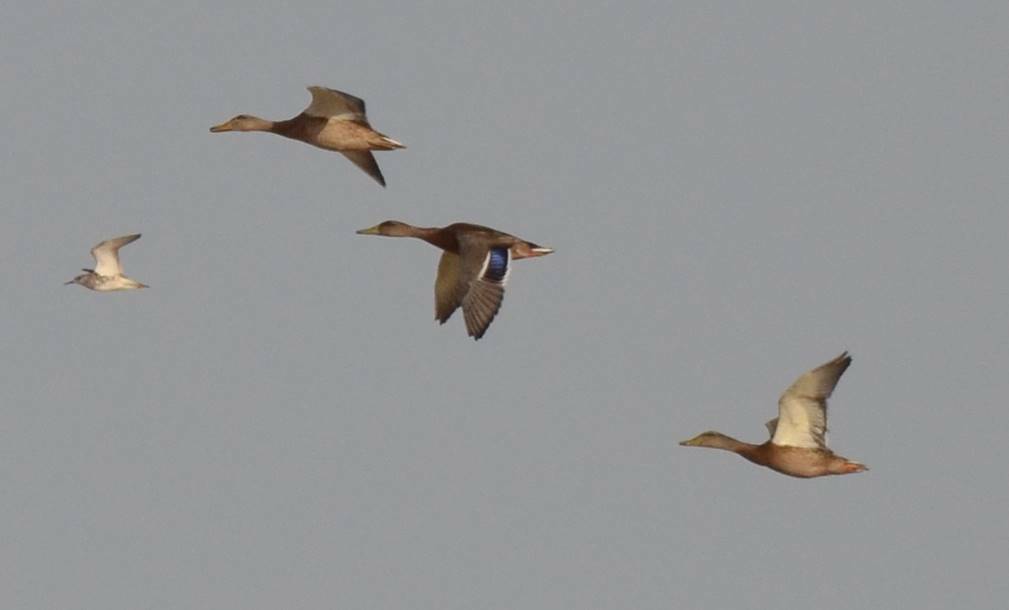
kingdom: Animalia
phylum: Chordata
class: Aves
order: Anseriformes
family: Anatidae
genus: Anas
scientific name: Anas platyrhynchos
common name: Mallard
